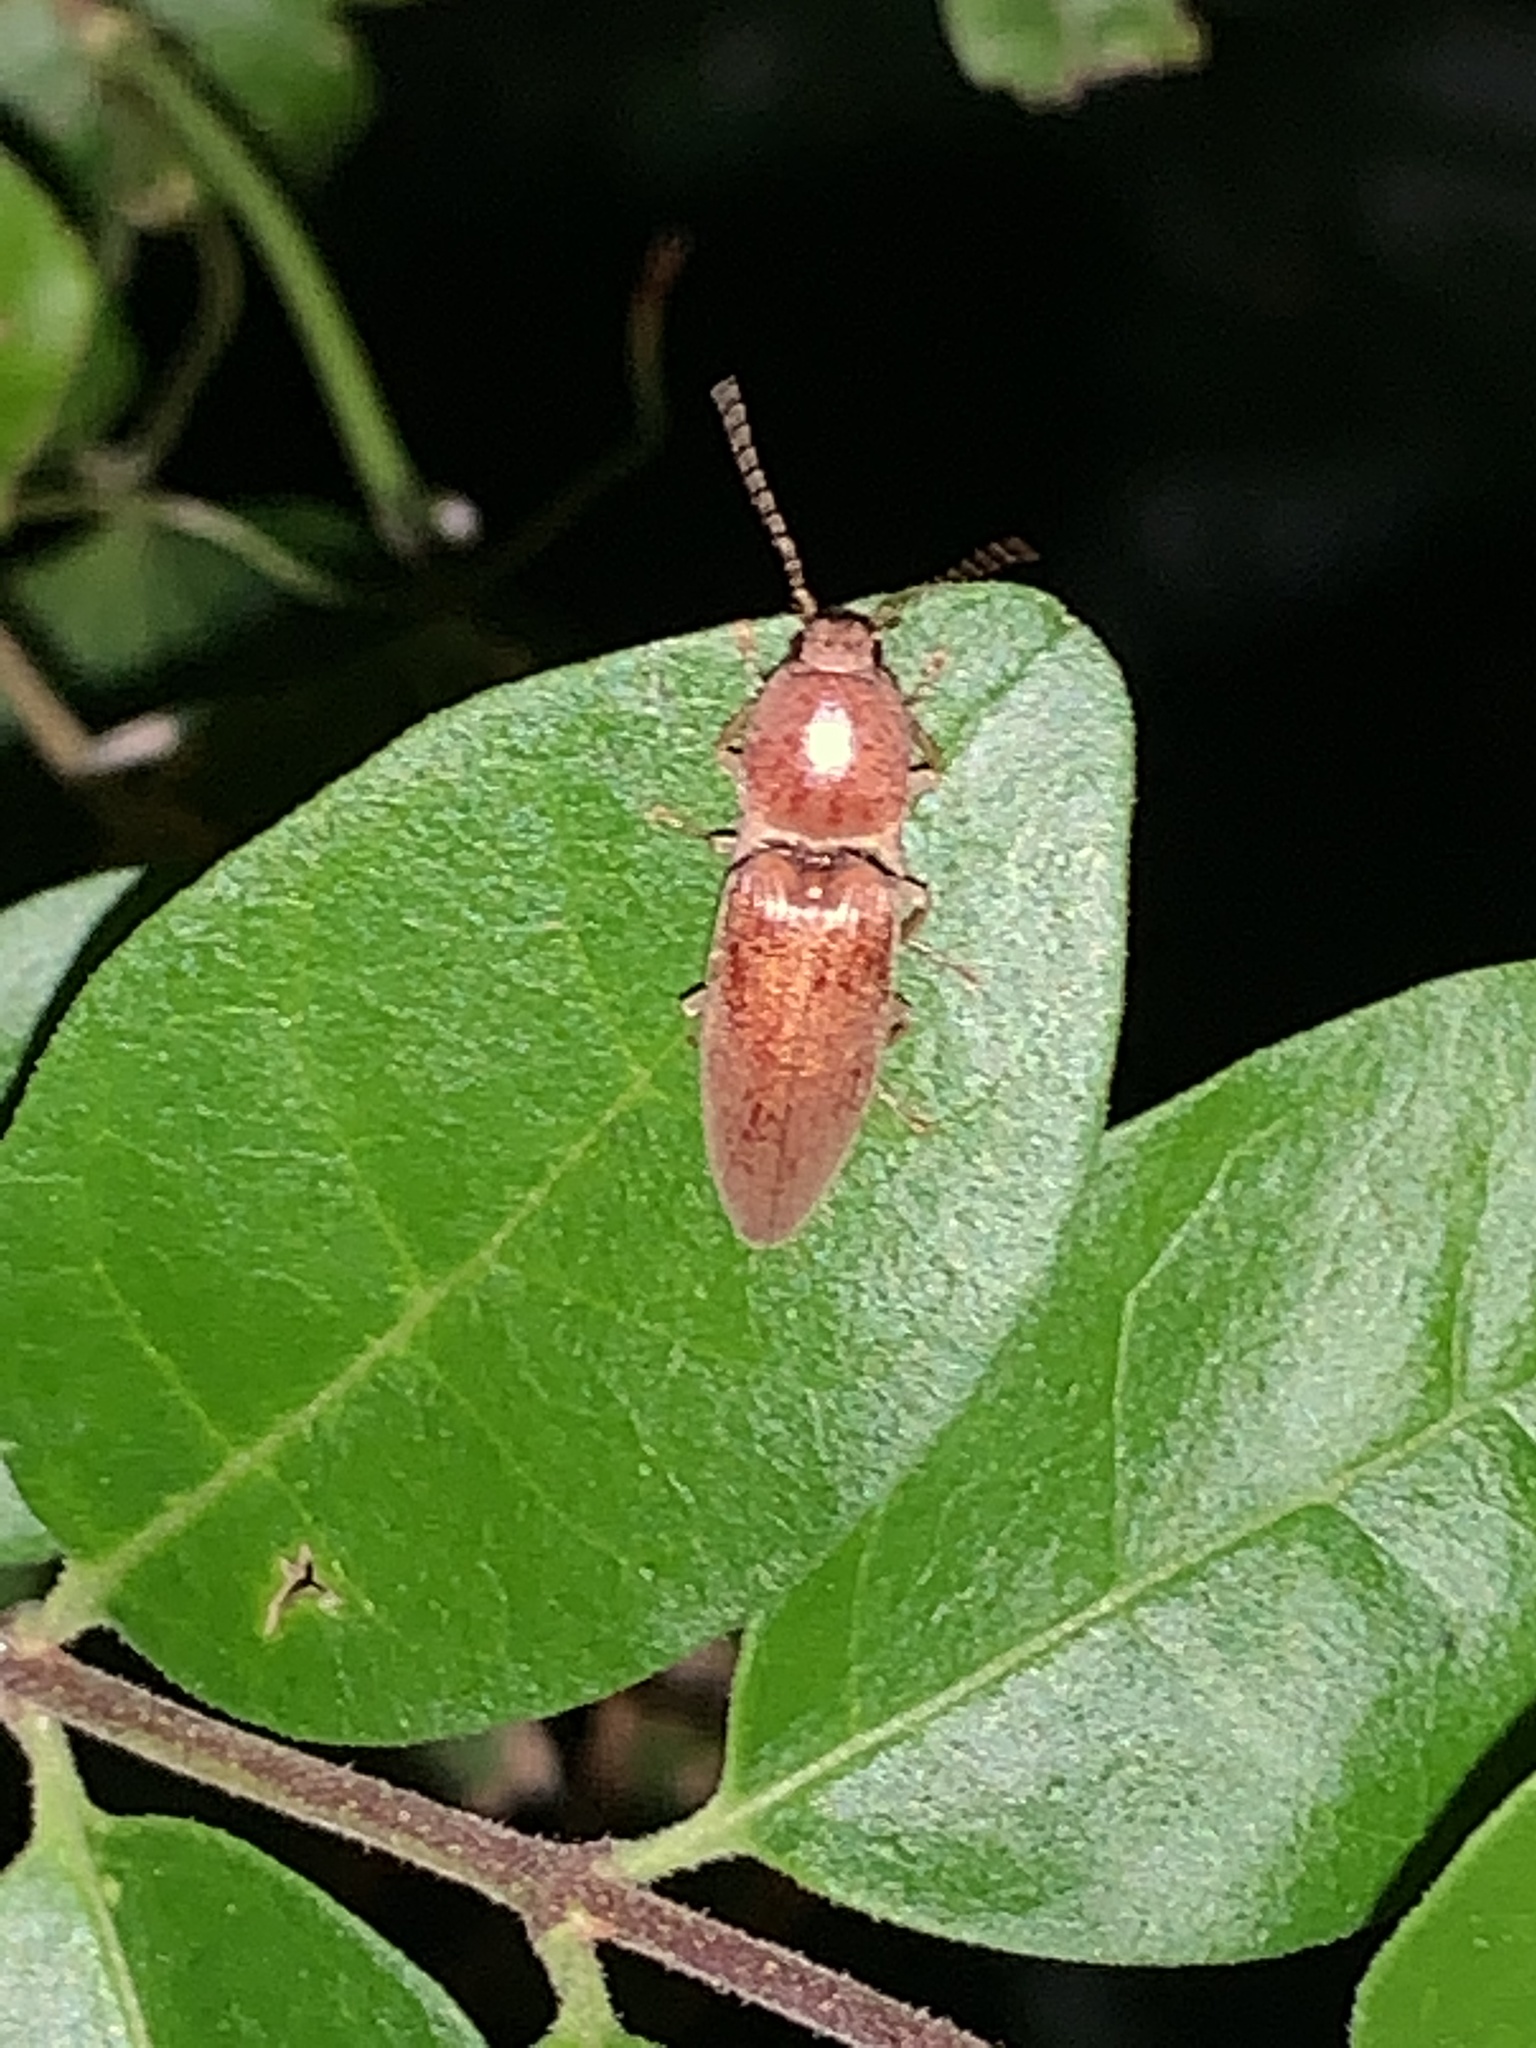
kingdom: Animalia
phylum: Arthropoda
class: Insecta
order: Coleoptera
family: Elateridae
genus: Monocrepidius
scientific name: Monocrepidius lividus
